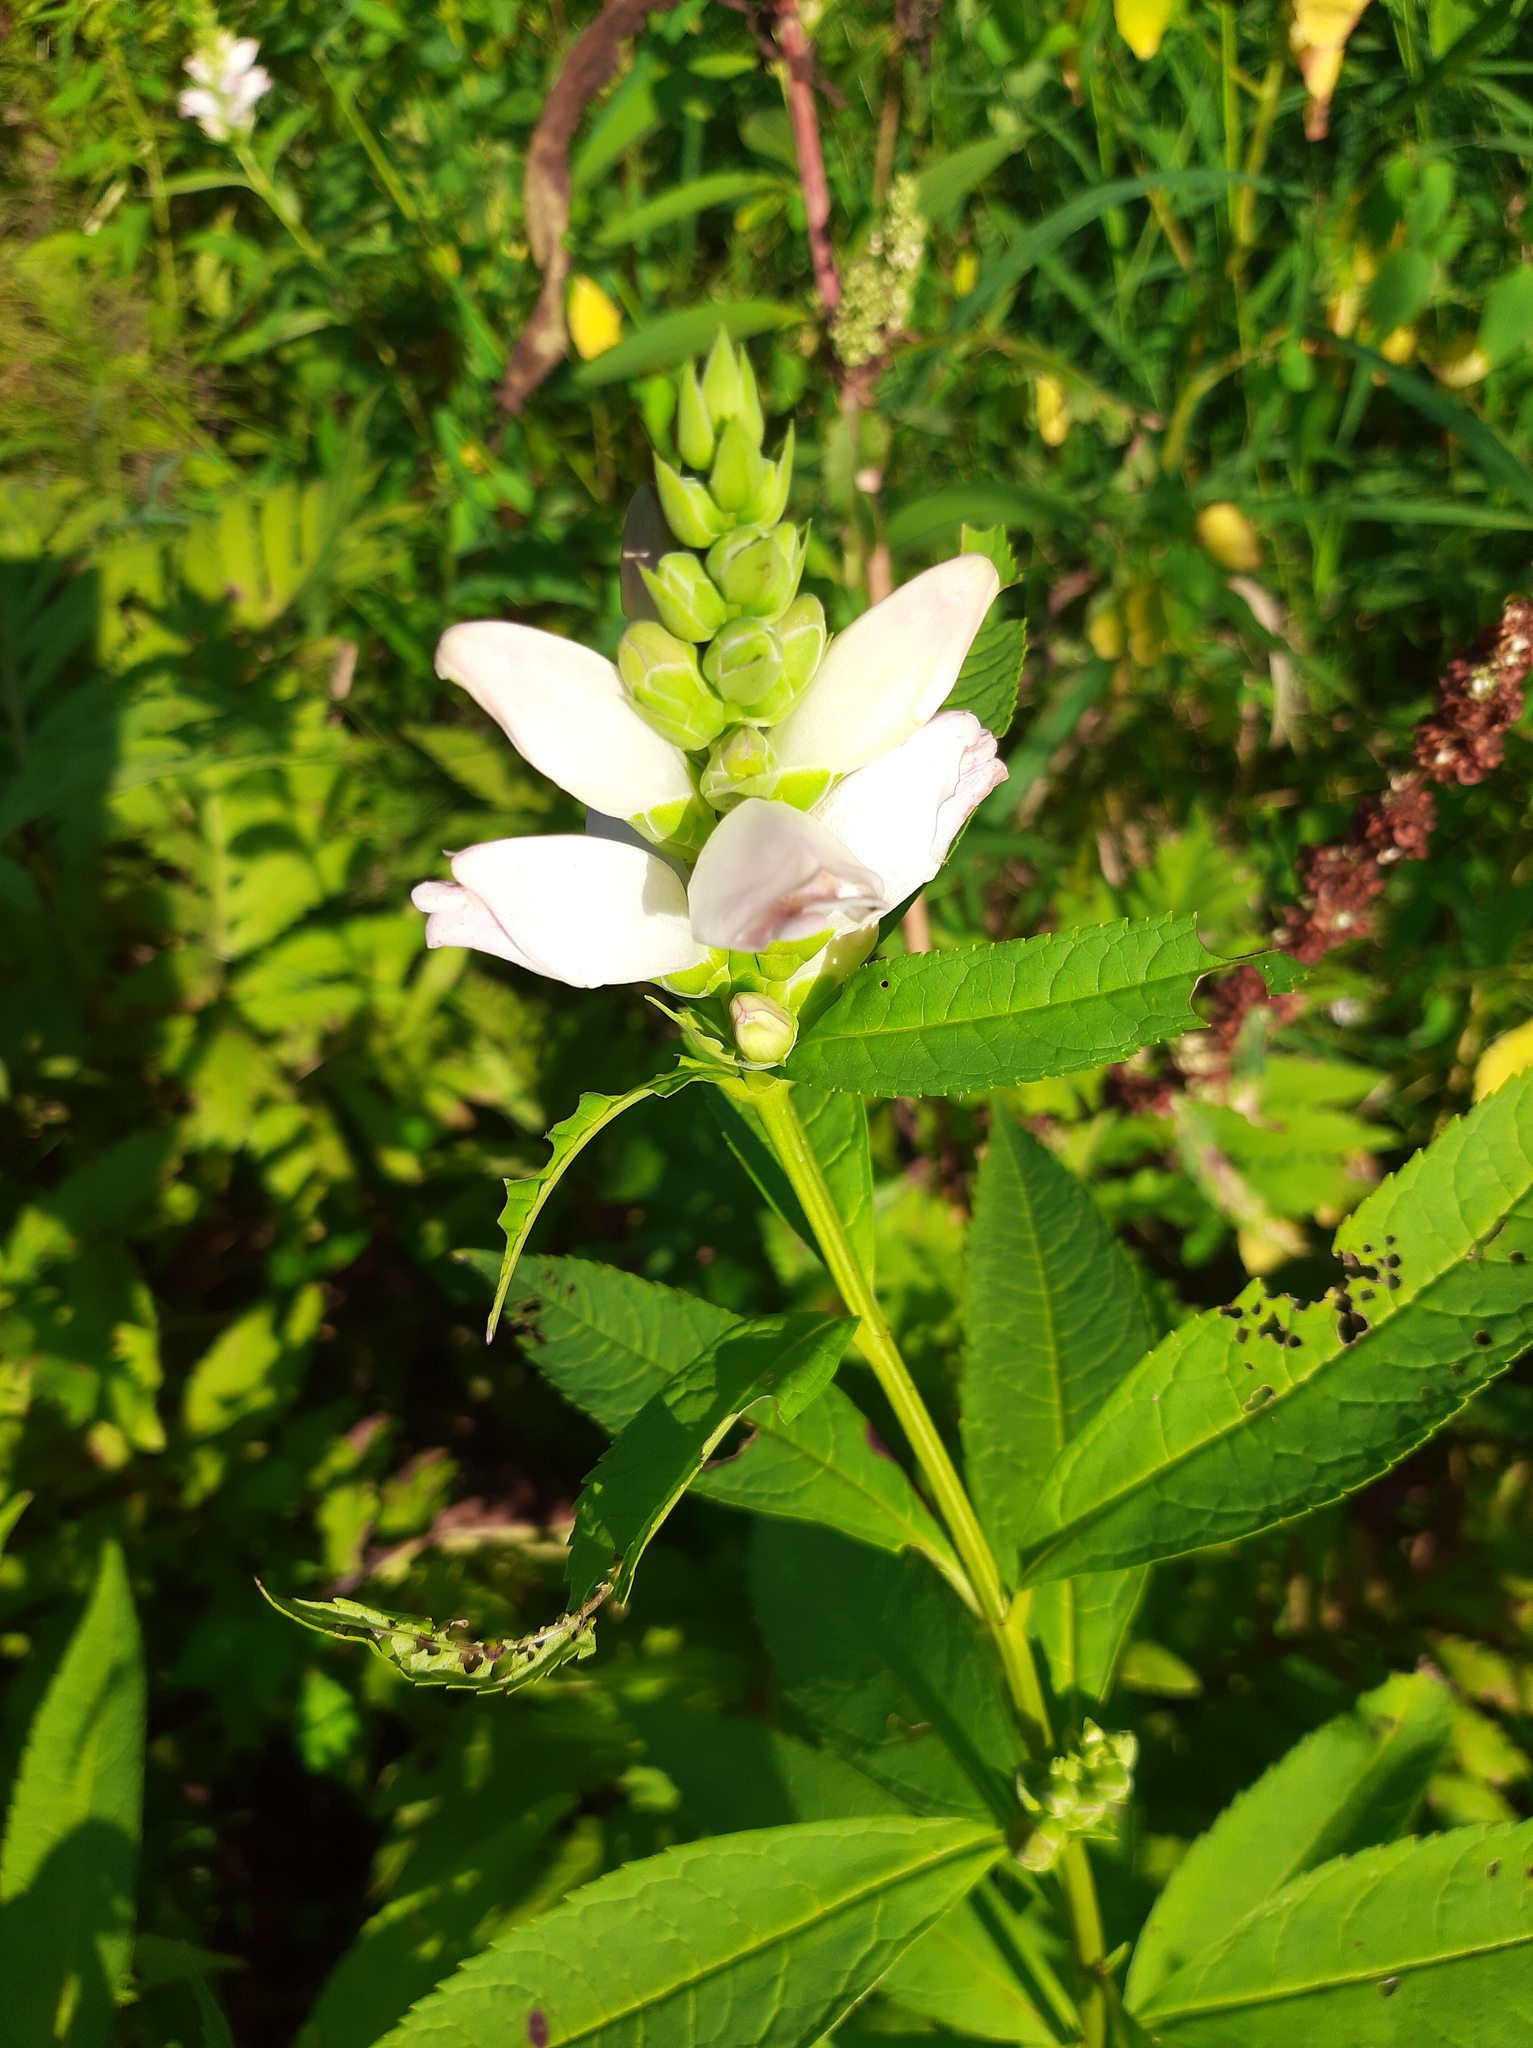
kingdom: Plantae
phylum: Tracheophyta
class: Magnoliopsida
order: Lamiales
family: Plantaginaceae
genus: Chelone
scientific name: Chelone glabra
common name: Snakehead
